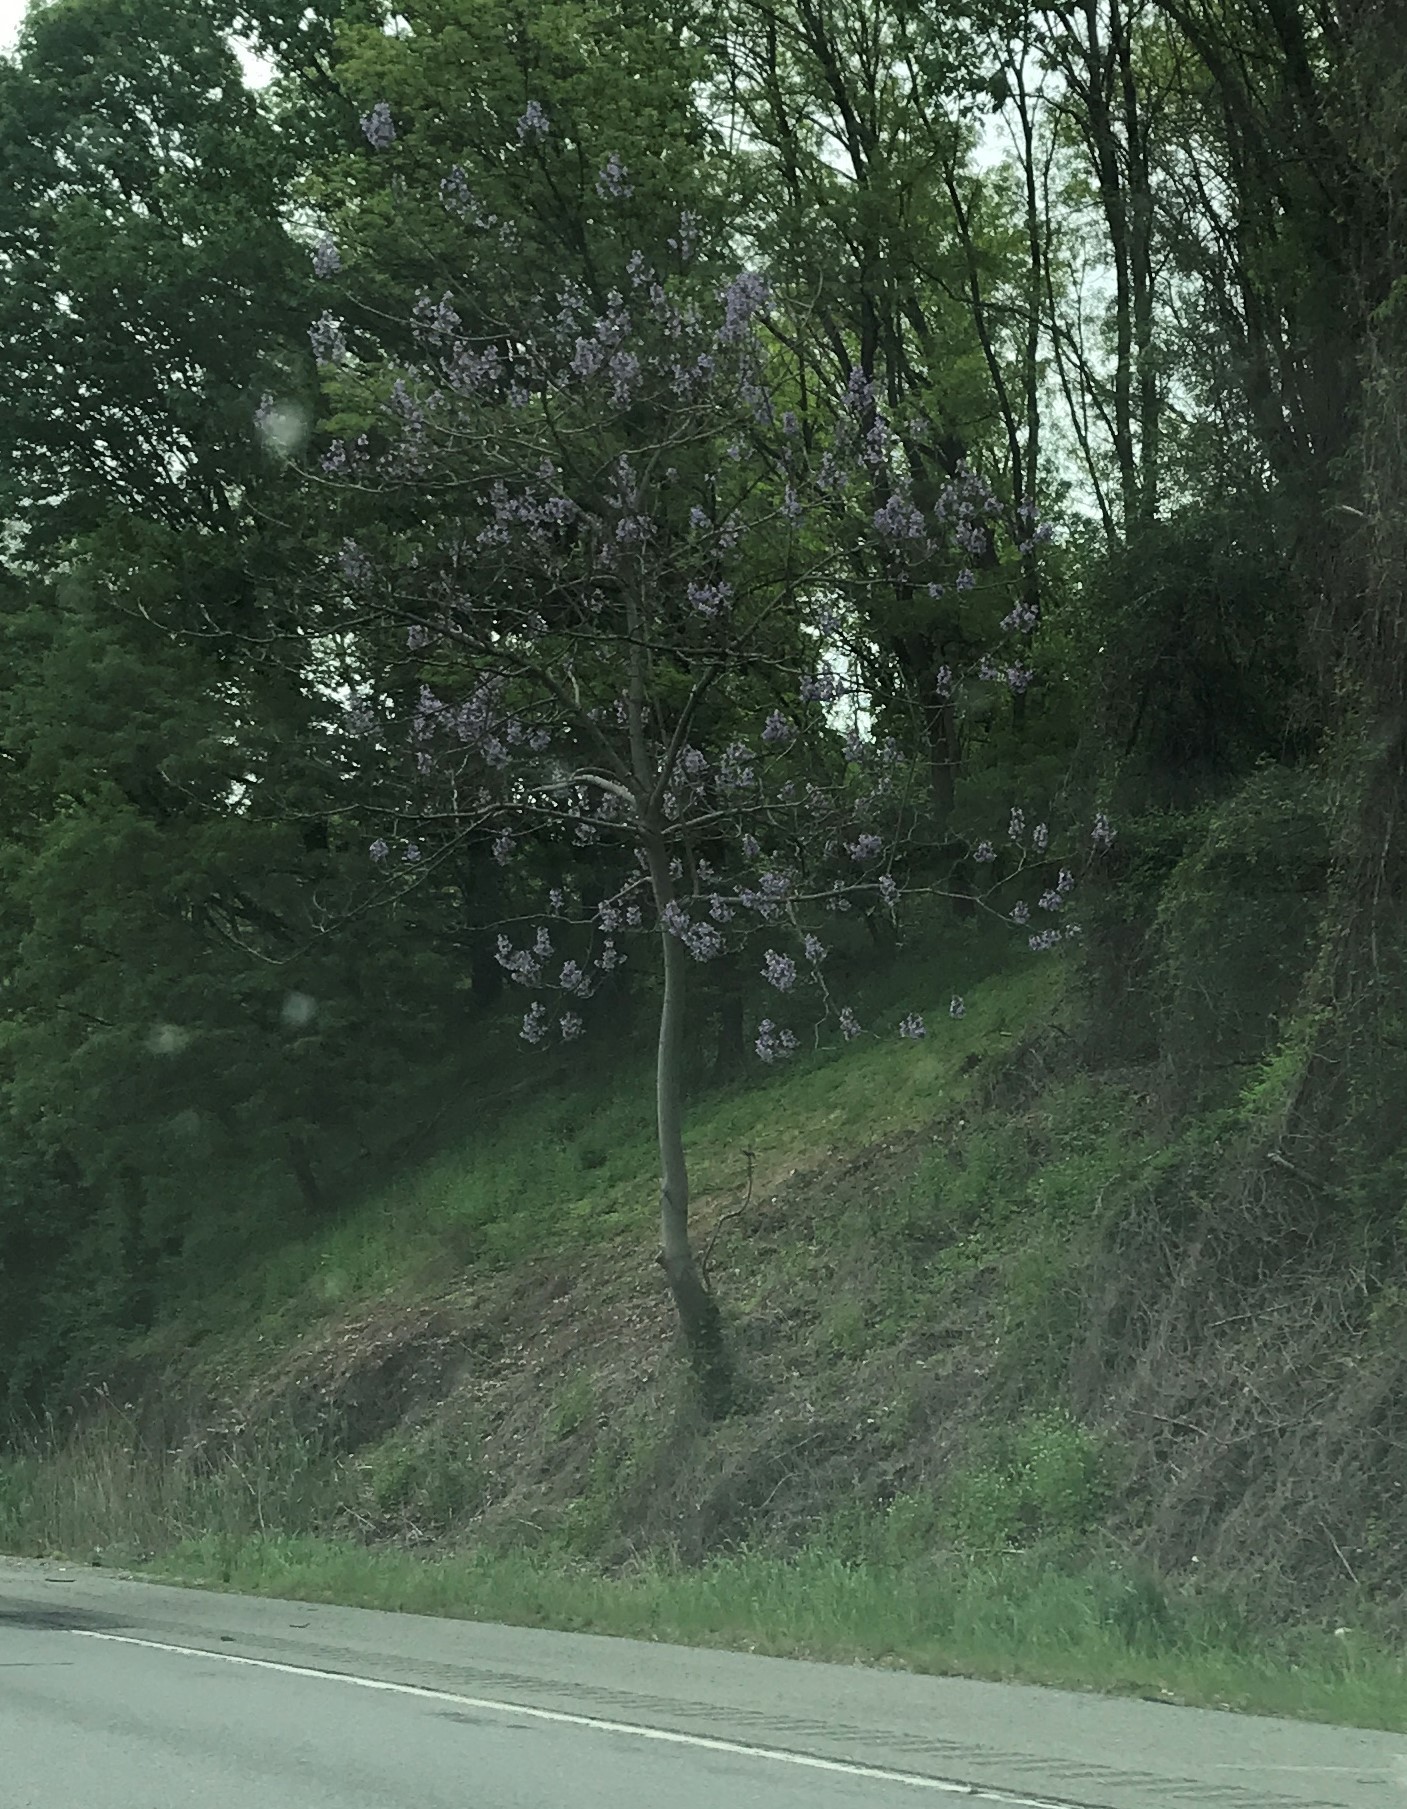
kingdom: Plantae
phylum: Tracheophyta
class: Magnoliopsida
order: Lamiales
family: Paulowniaceae
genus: Paulownia
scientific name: Paulownia tomentosa
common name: Foxglove-tree
